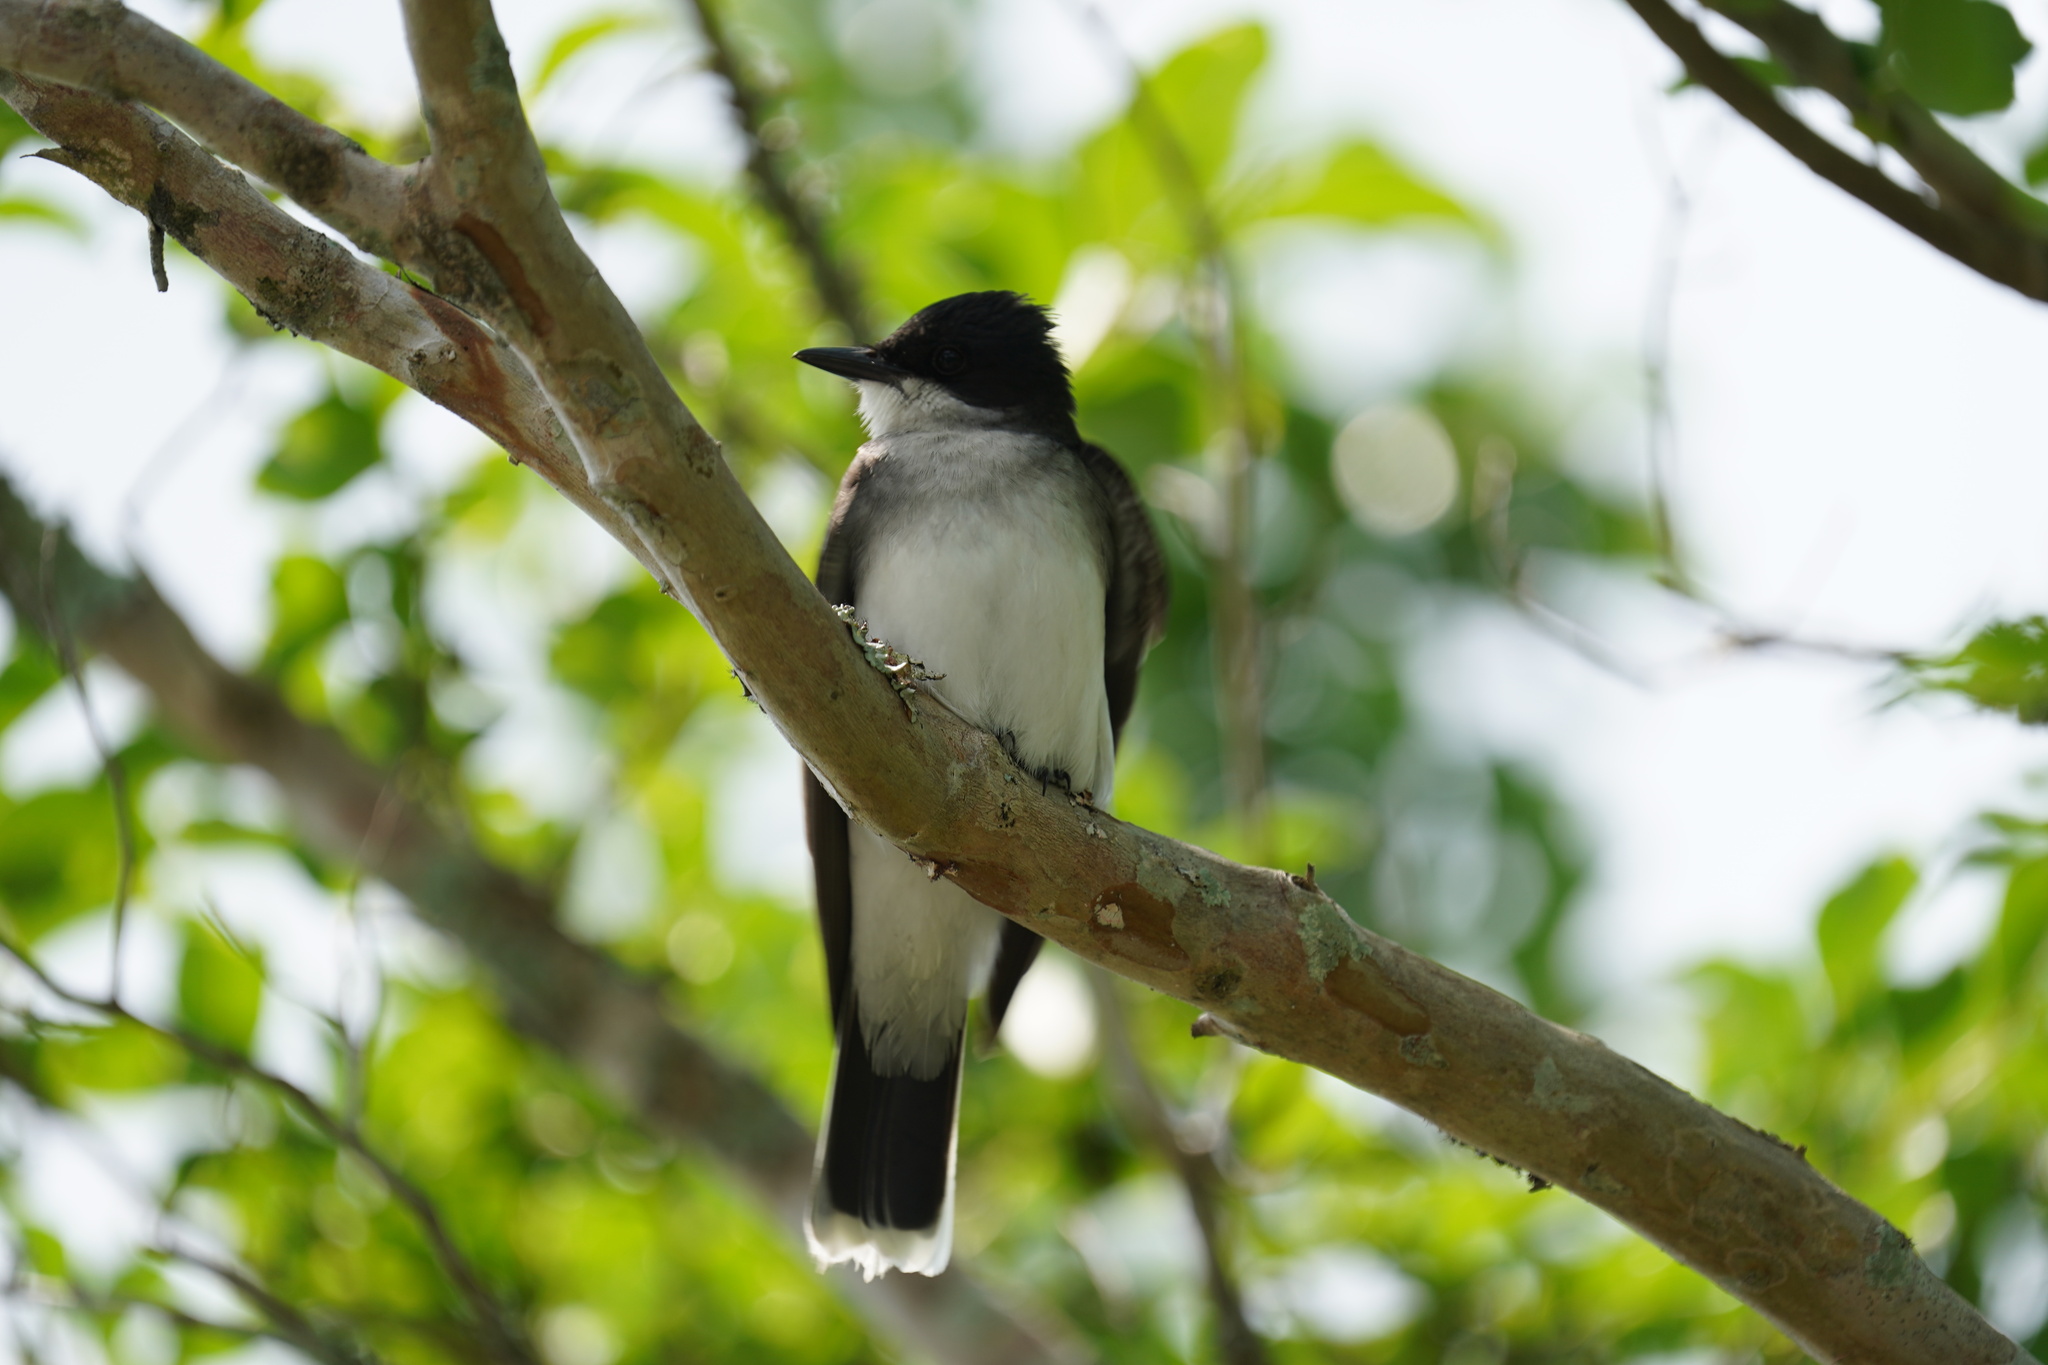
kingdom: Animalia
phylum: Chordata
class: Aves
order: Passeriformes
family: Tyrannidae
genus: Tyrannus
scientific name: Tyrannus tyrannus
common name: Eastern kingbird
